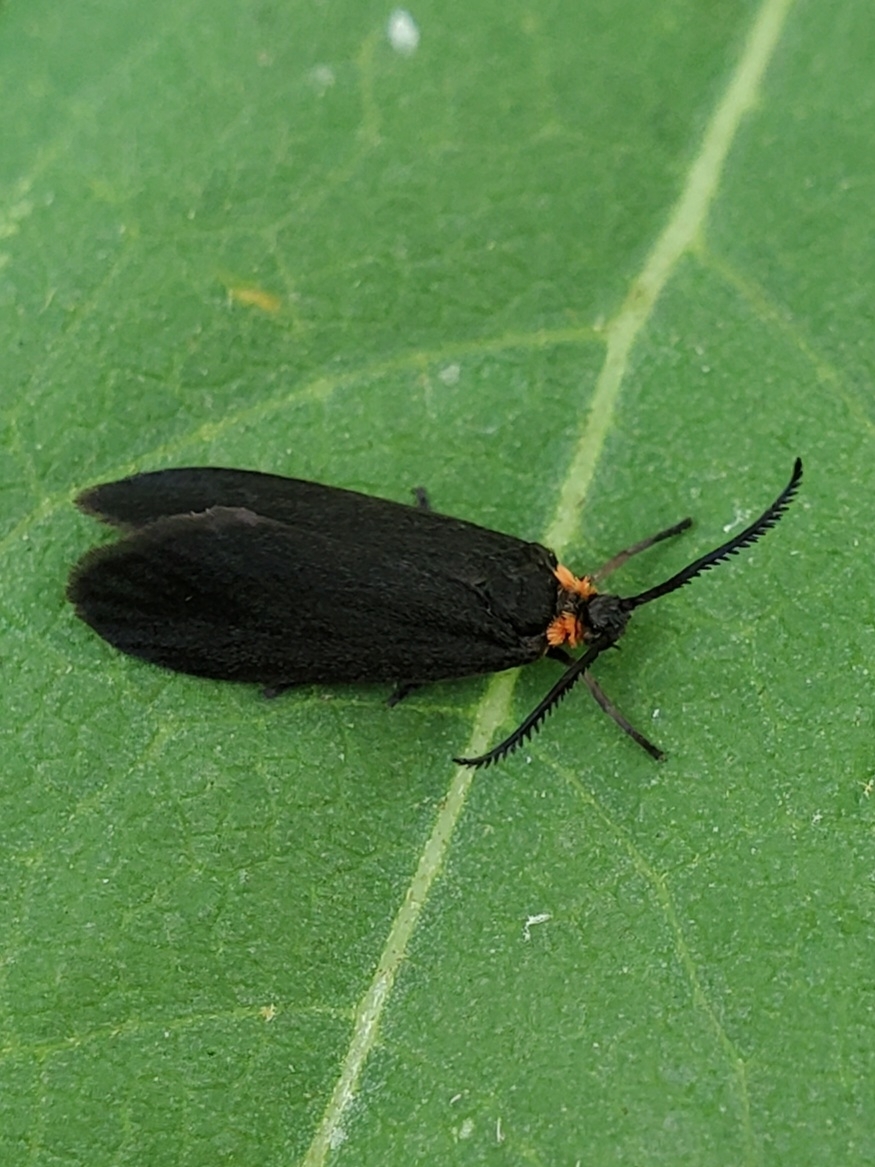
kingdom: Animalia
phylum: Arthropoda
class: Insecta
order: Lepidoptera
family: Zygaenidae
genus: Acoloithus
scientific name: Acoloithus falsarius
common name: Clemens' false skeletonizer
